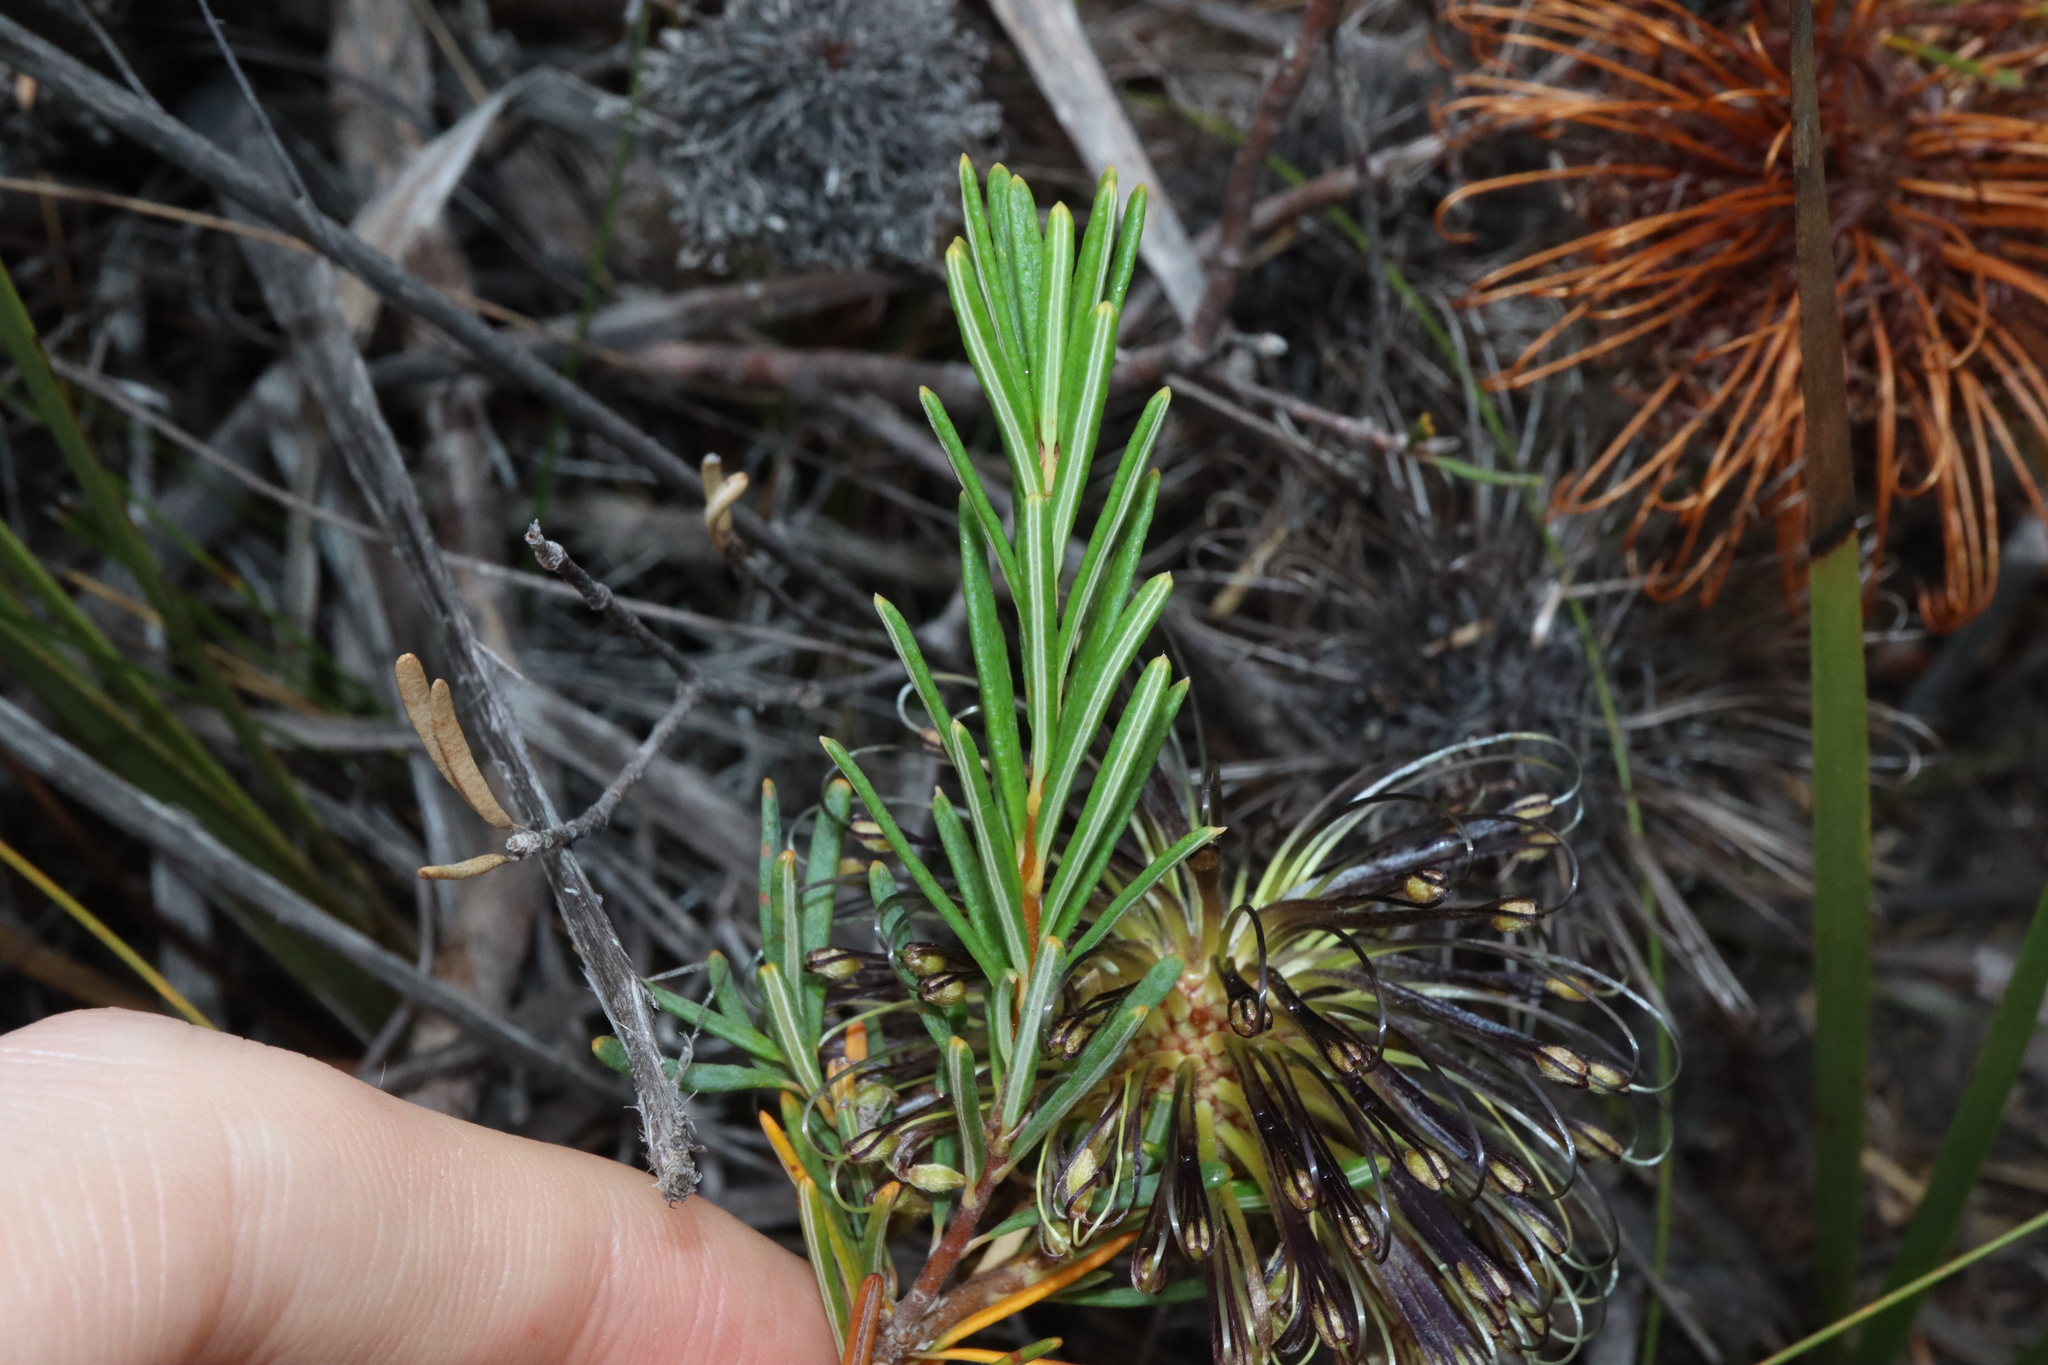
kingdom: Plantae
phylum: Tracheophyta
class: Magnoliopsida
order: Proteales
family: Proteaceae
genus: Banksia
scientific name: Banksia violacea
